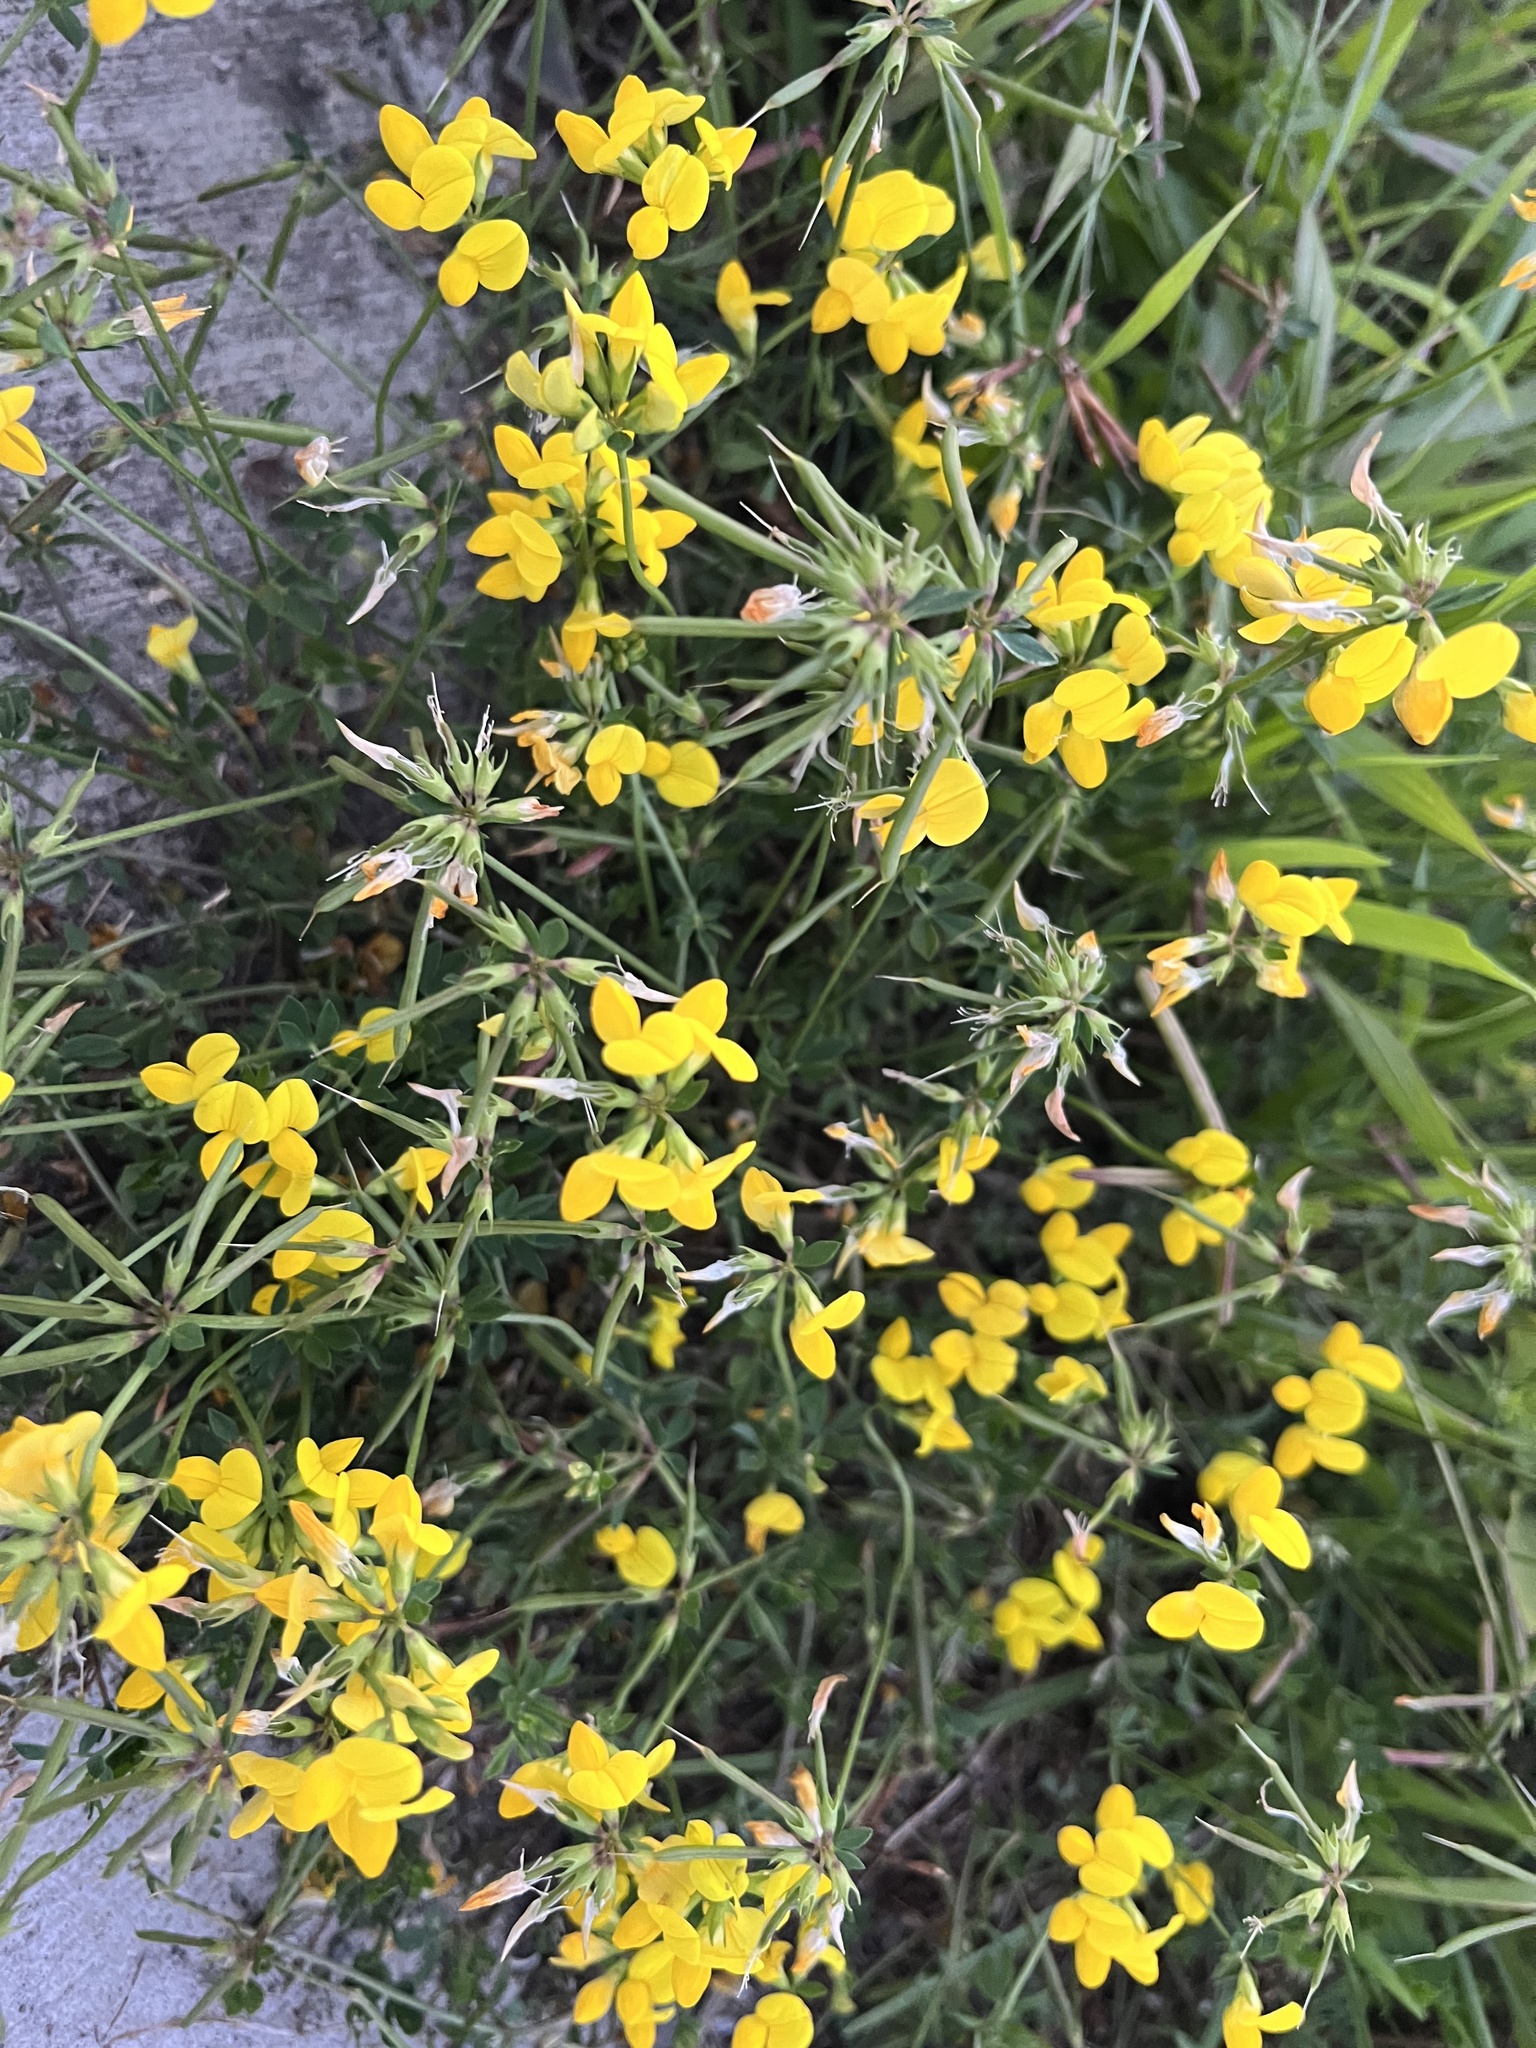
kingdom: Plantae
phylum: Tracheophyta
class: Magnoliopsida
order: Fabales
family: Fabaceae
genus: Lotus
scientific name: Lotus corniculatus
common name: Common bird's-foot-trefoil
